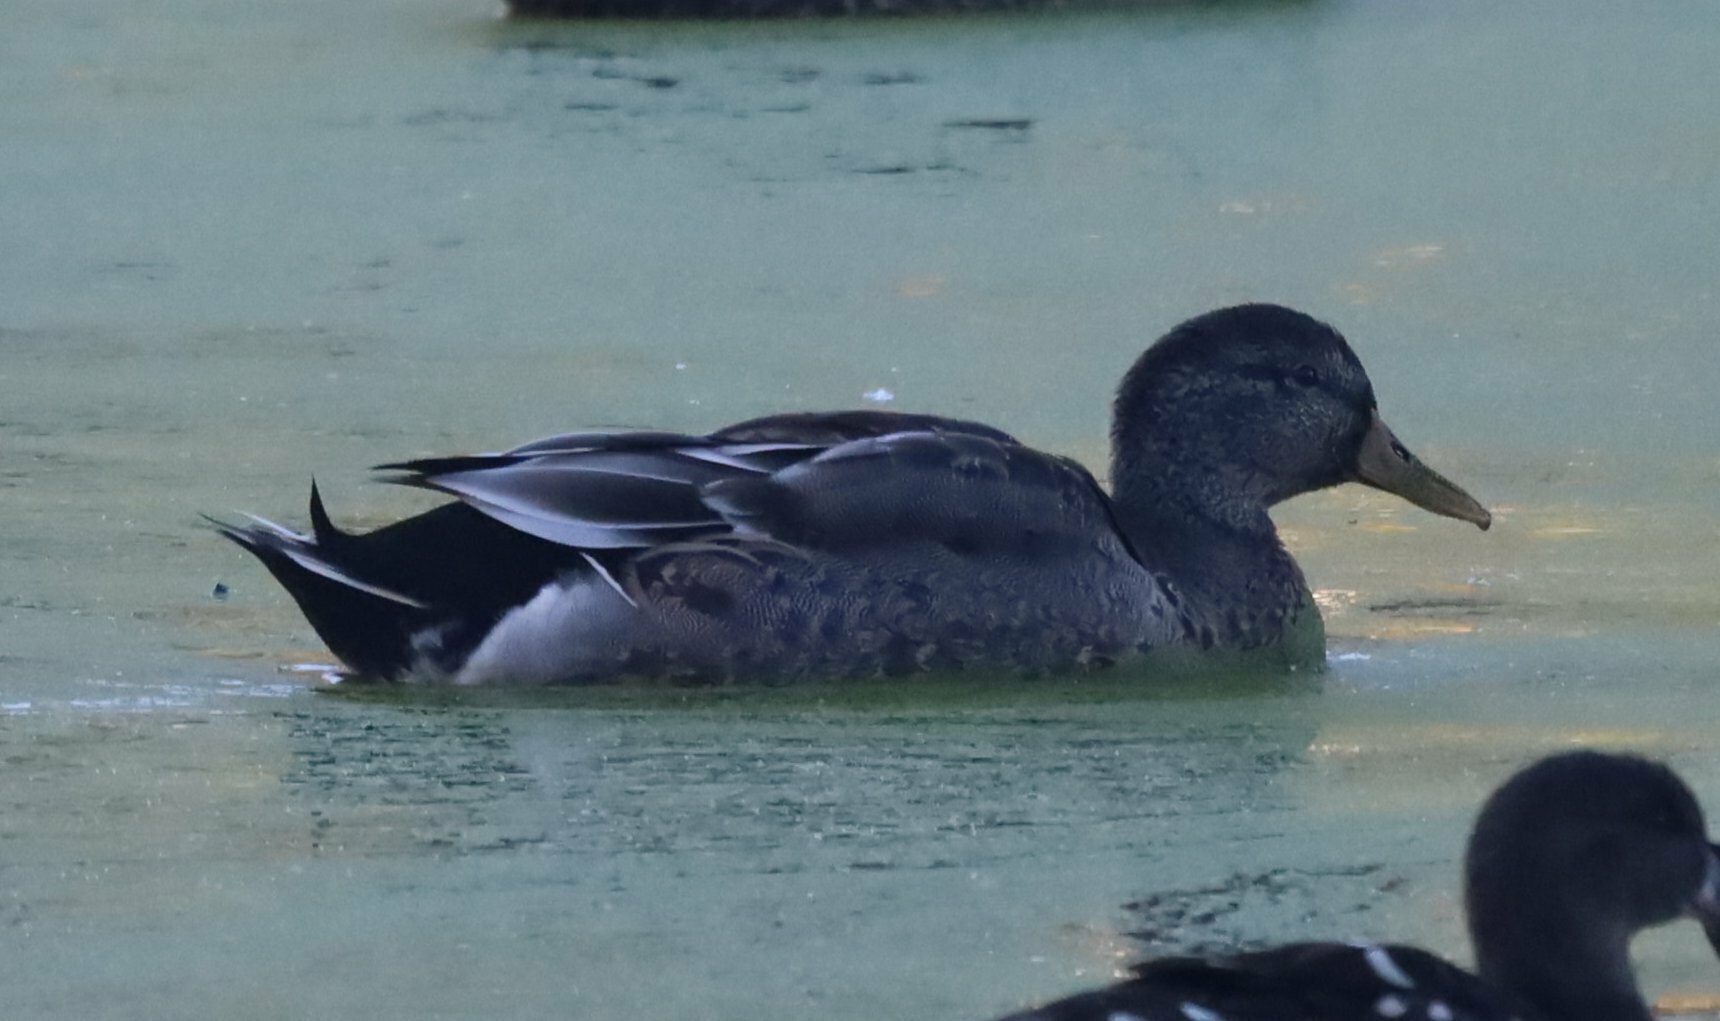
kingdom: Animalia
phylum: Chordata
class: Aves
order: Anseriformes
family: Anatidae
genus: Anas
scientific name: Anas
